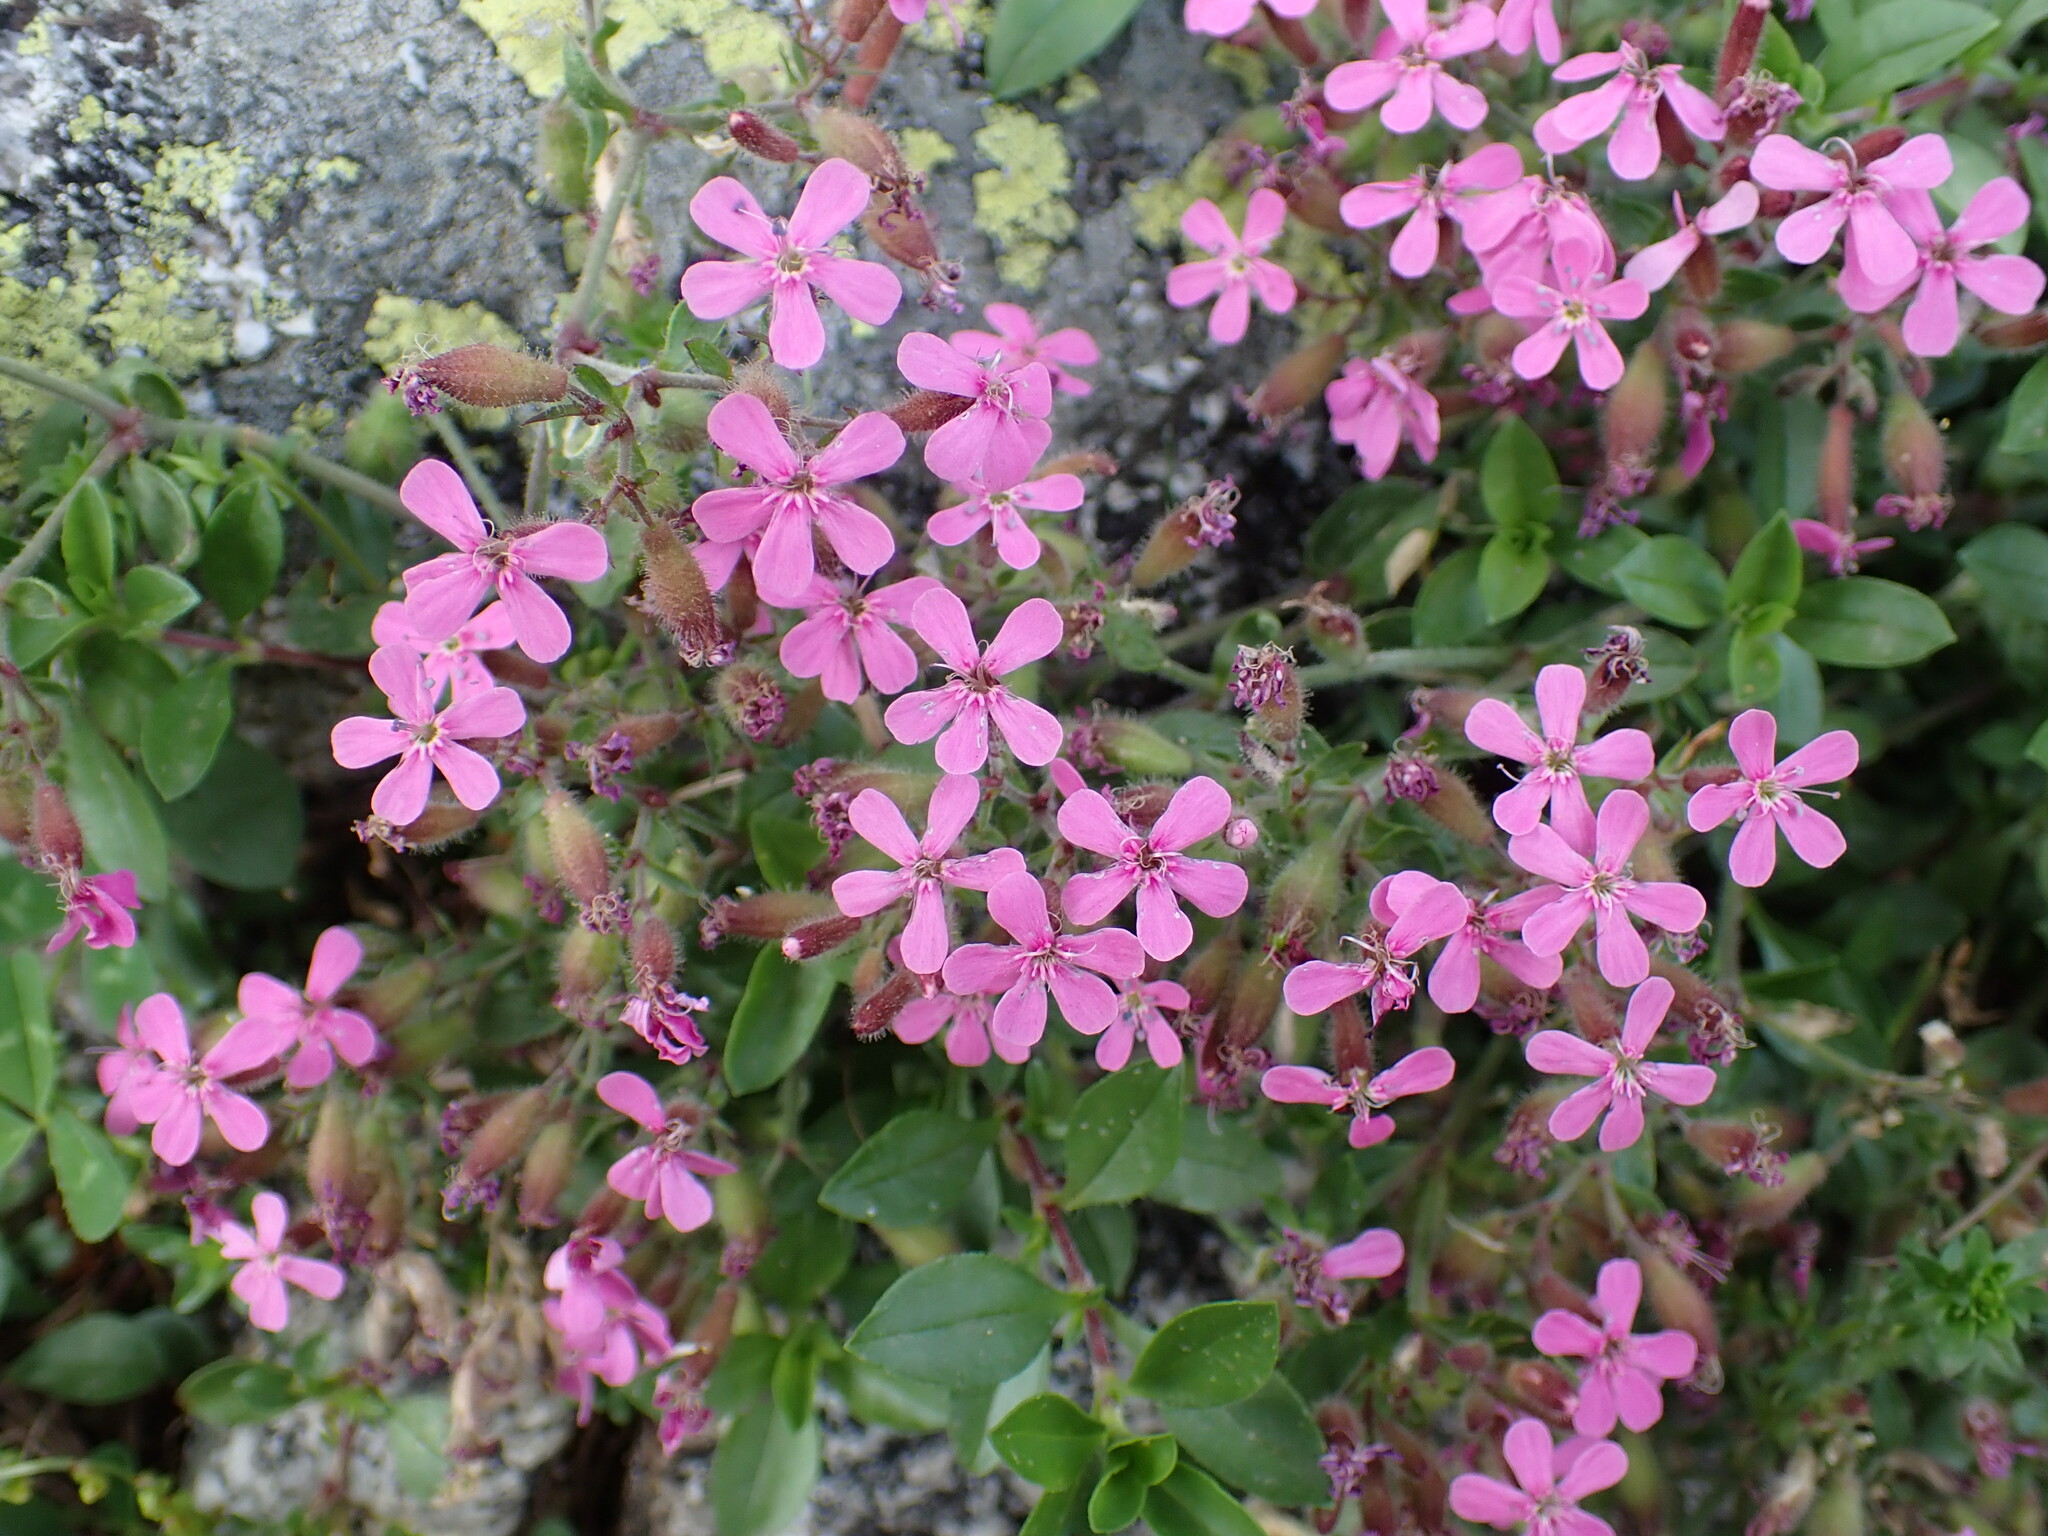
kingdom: Plantae
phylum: Tracheophyta
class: Magnoliopsida
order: Caryophyllales
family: Caryophyllaceae
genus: Saponaria
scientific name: Saponaria ocymoides
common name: Rock soapwort
